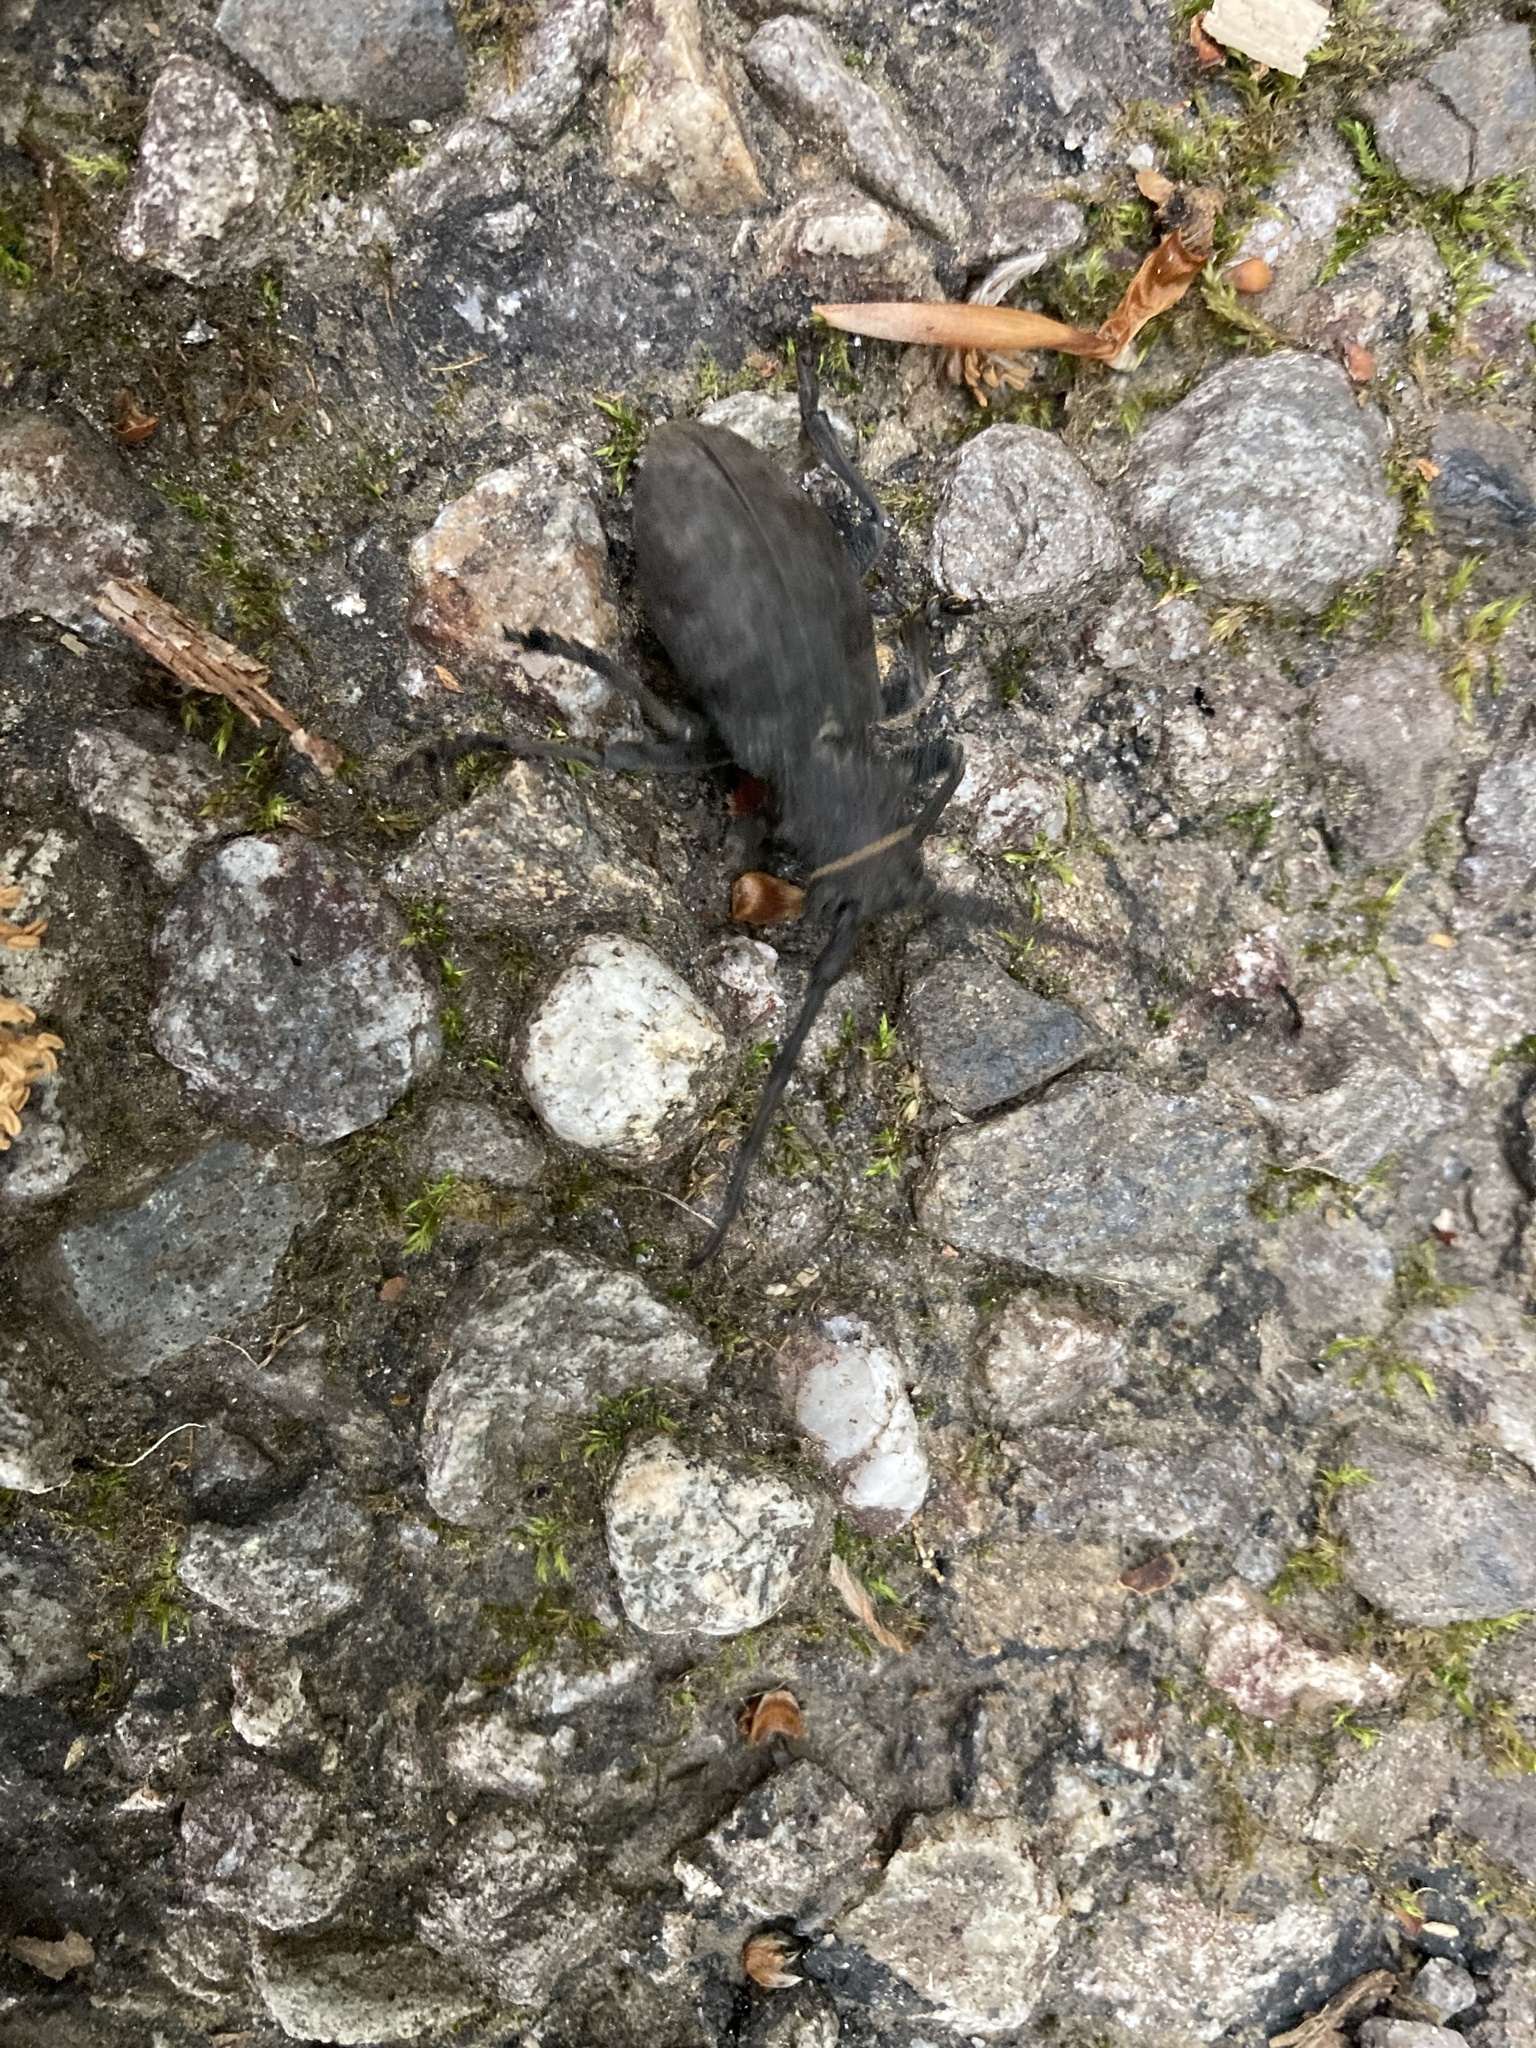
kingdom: Animalia
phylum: Arthropoda
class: Insecta
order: Coleoptera
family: Cerambycidae
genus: Morimus
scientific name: Morimus asper
